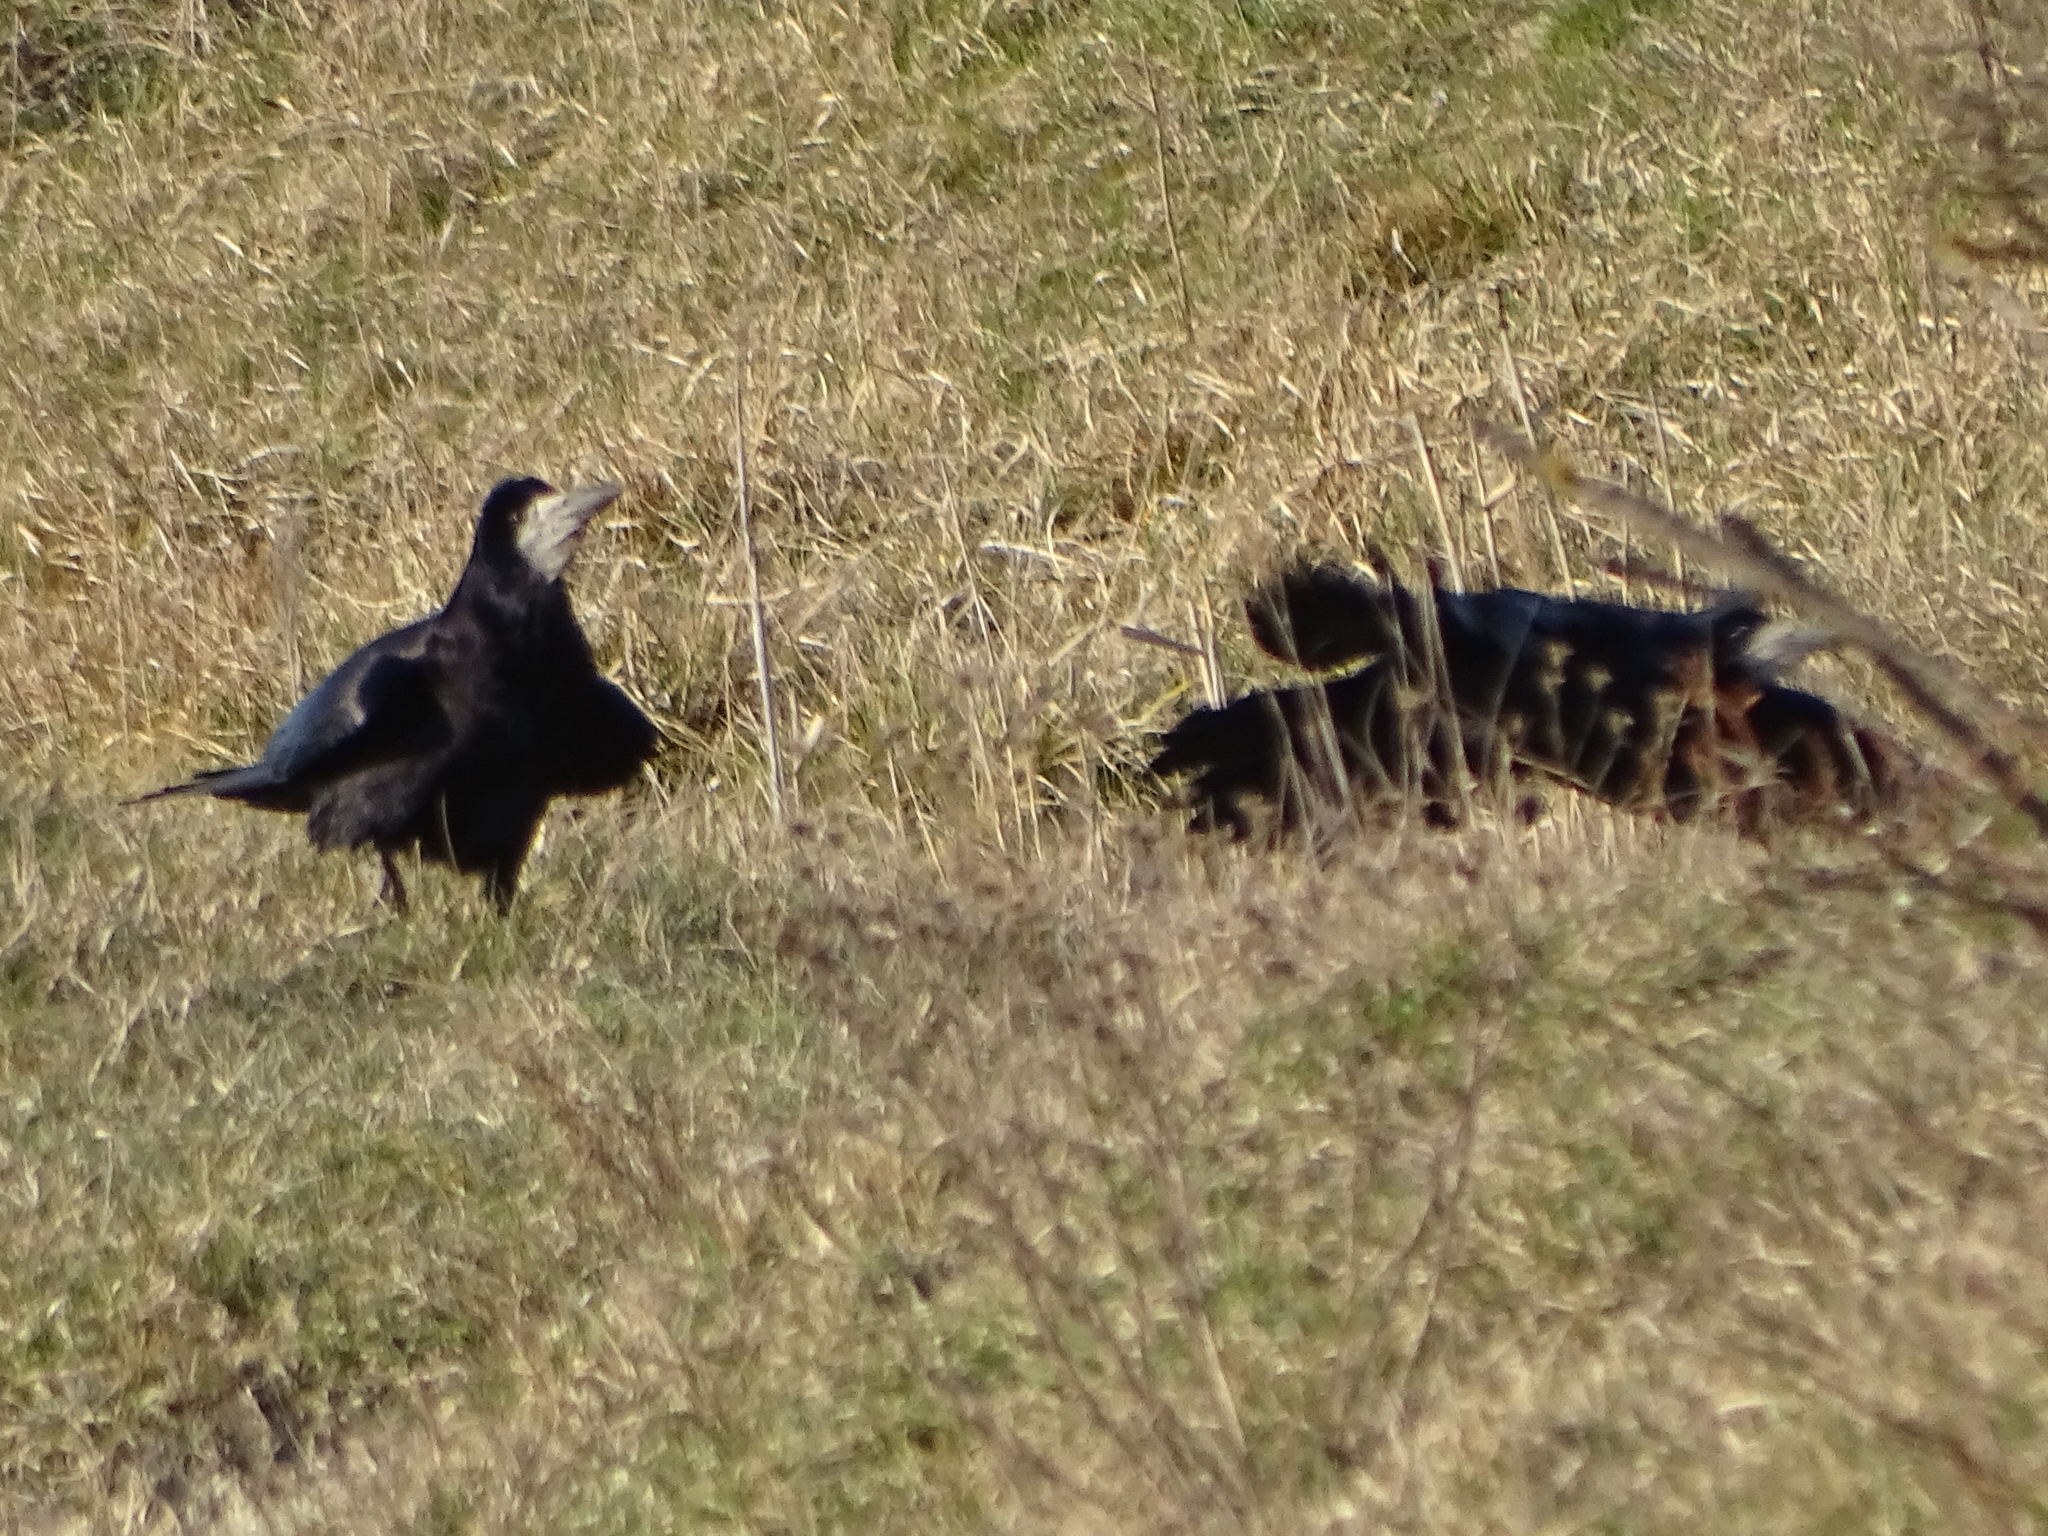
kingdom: Animalia
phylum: Chordata
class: Aves
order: Passeriformes
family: Corvidae
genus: Corvus
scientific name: Corvus frugilegus
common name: Rook
